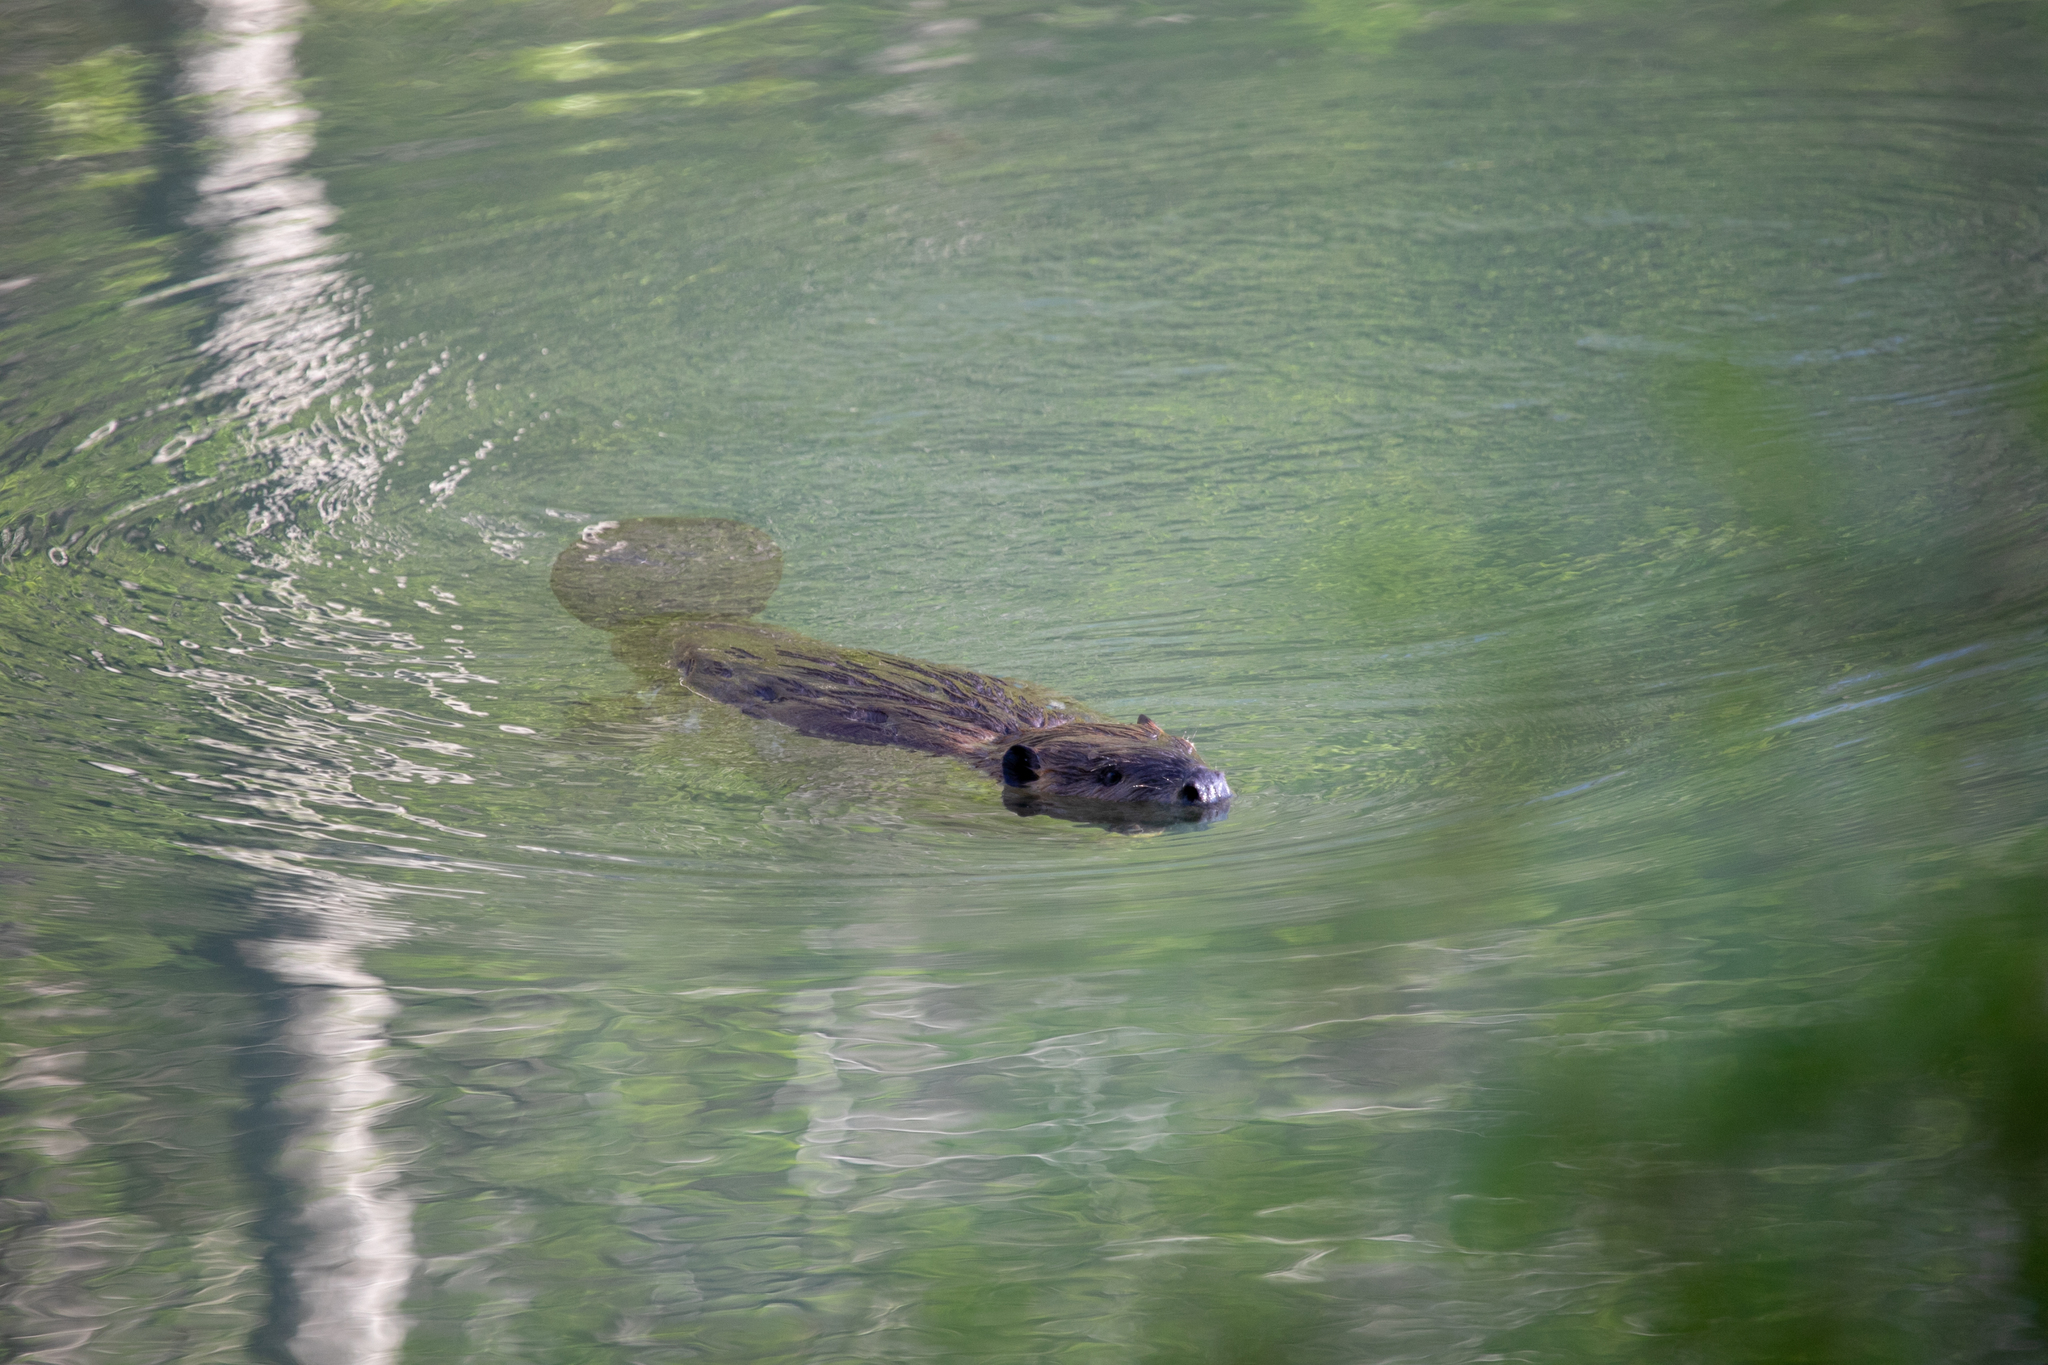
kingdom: Animalia
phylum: Chordata
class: Mammalia
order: Rodentia
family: Castoridae
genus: Castor
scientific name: Castor canadensis
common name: American beaver
